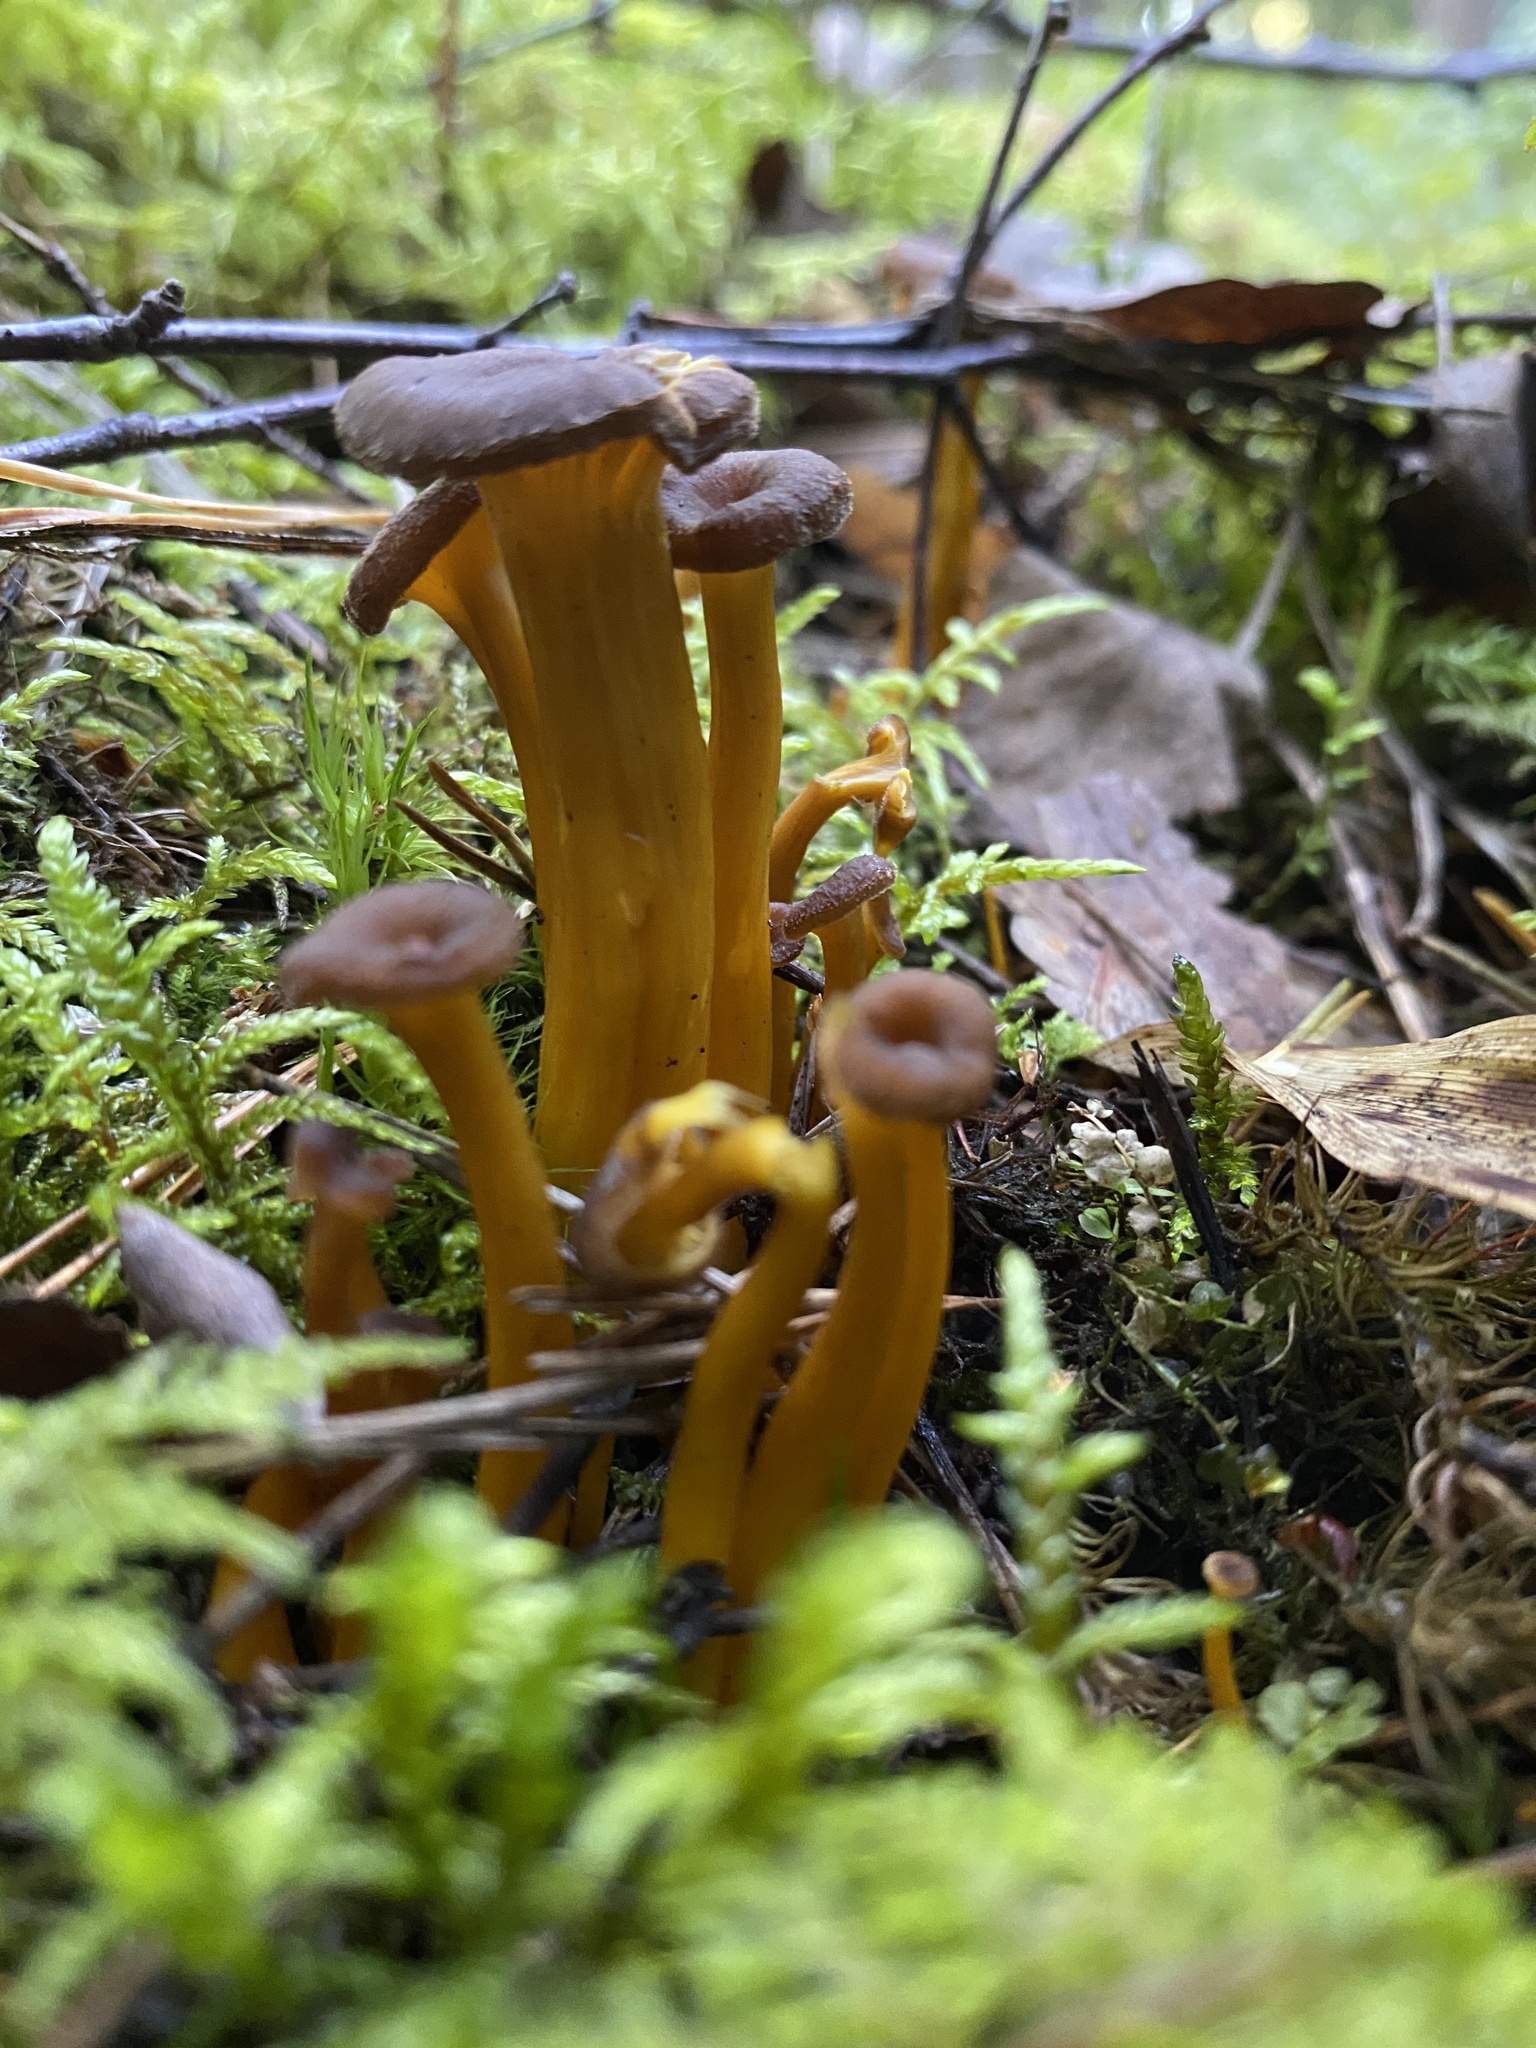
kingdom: Fungi
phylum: Basidiomycota
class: Agaricomycetes
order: Cantharellales
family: Hydnaceae
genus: Craterellus
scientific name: Craterellus tubaeformis
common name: Yellowfoot
